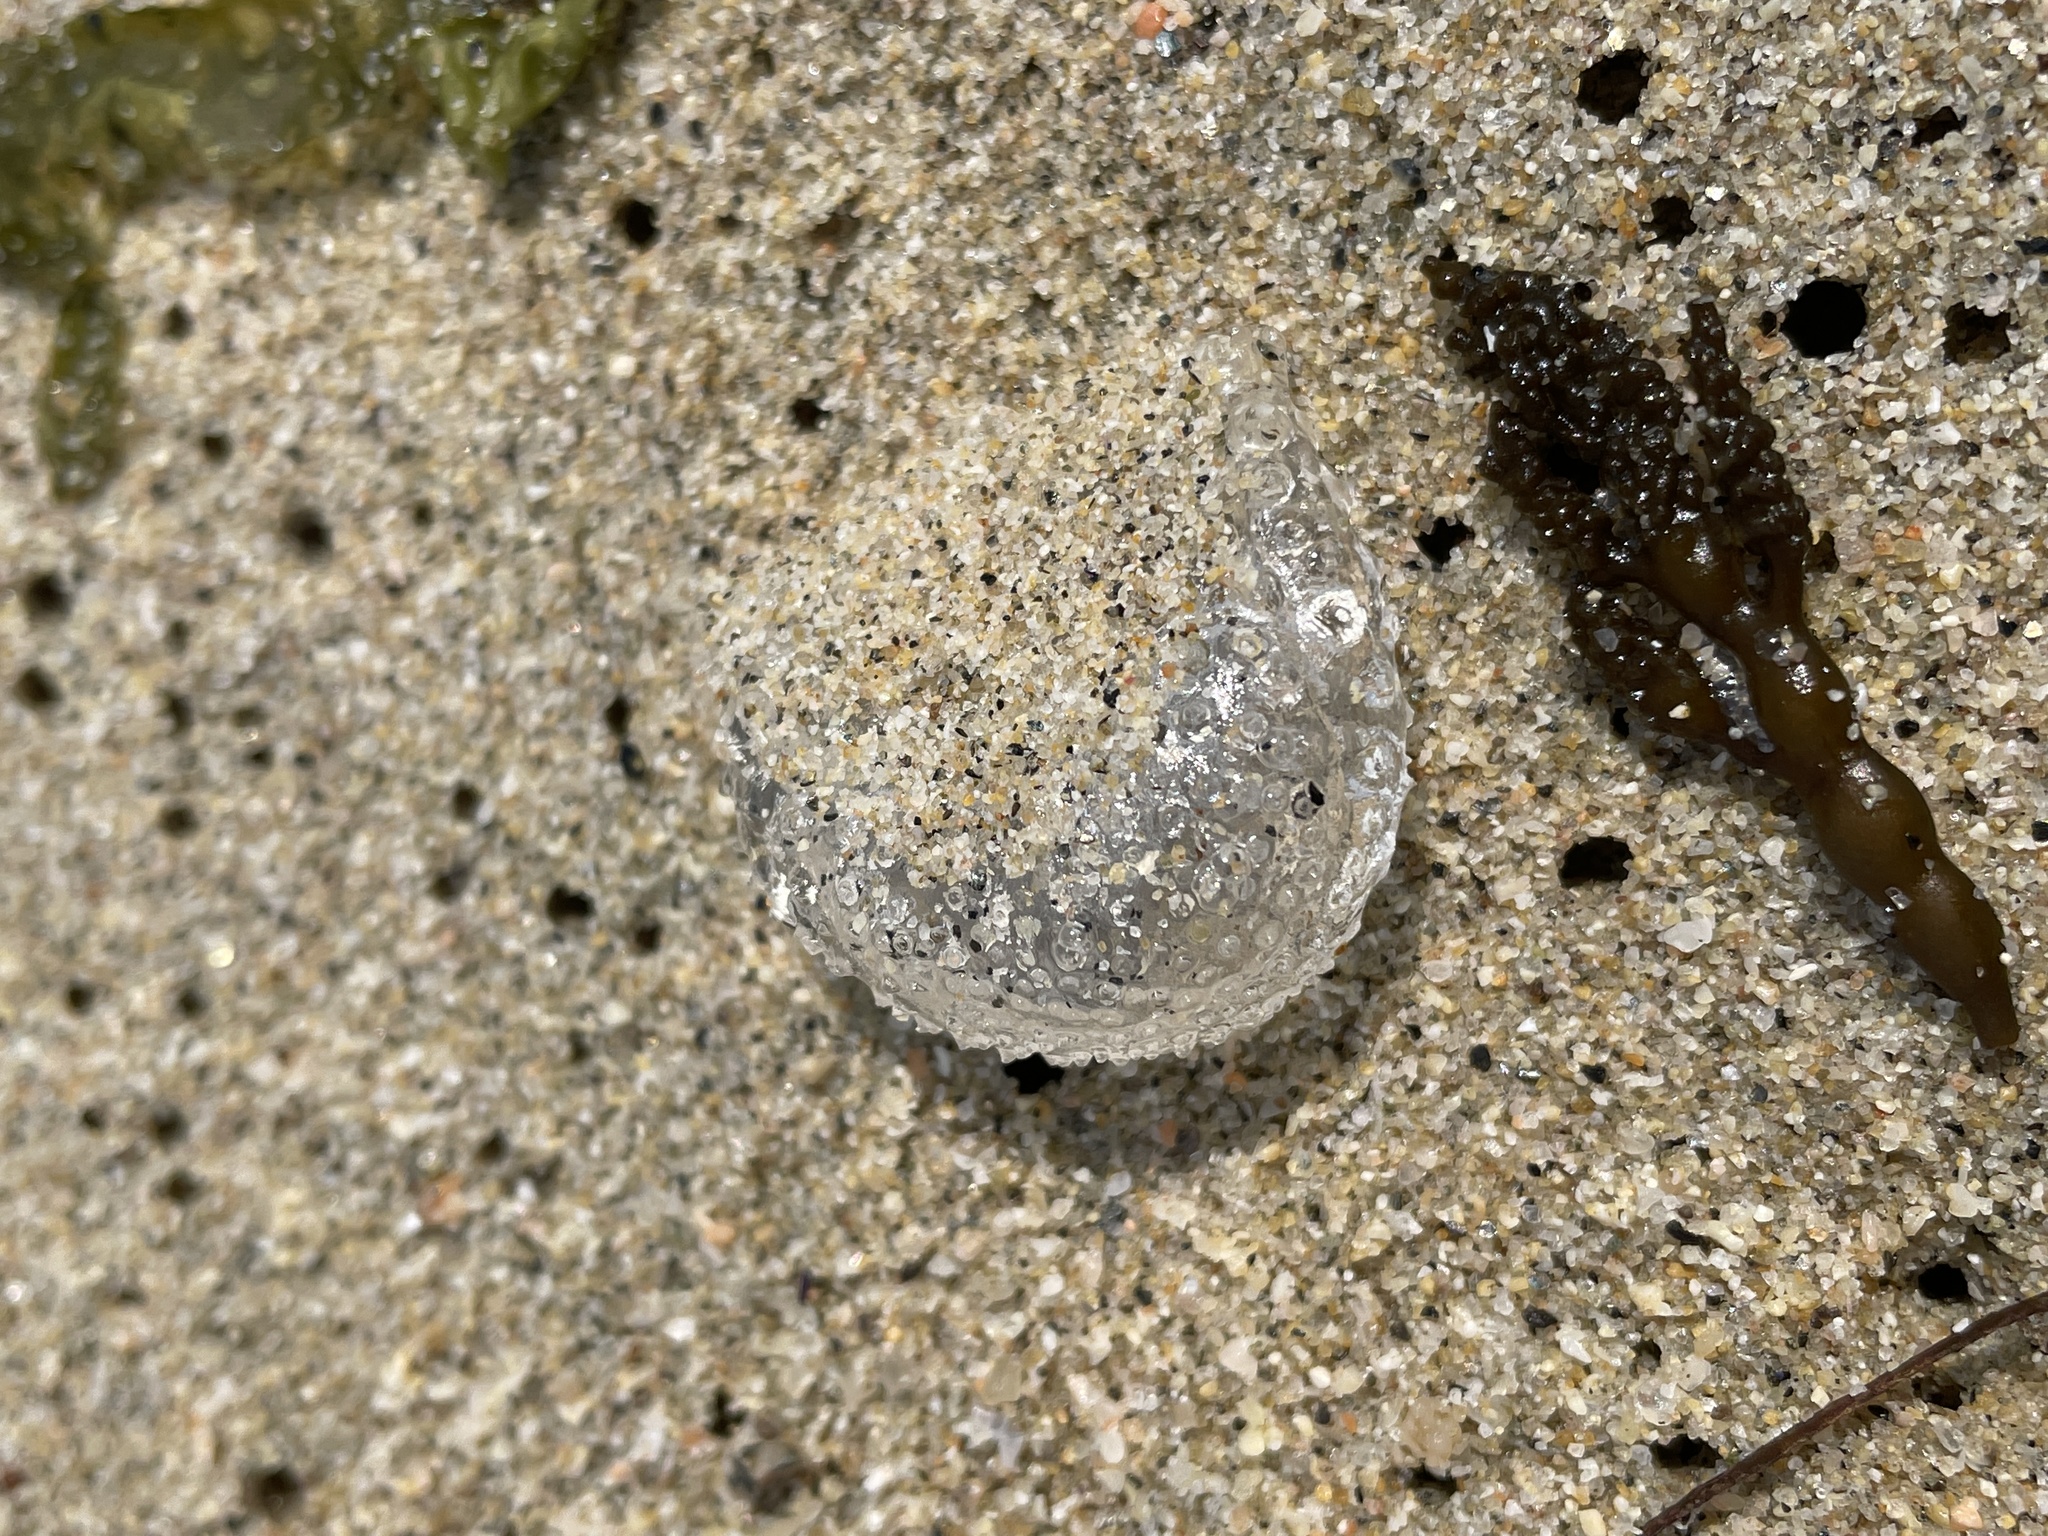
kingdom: Animalia
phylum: Mollusca
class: Gastropoda
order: Pteropoda
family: Cymbuliidae
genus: Corolla
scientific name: Corolla spectabilis
